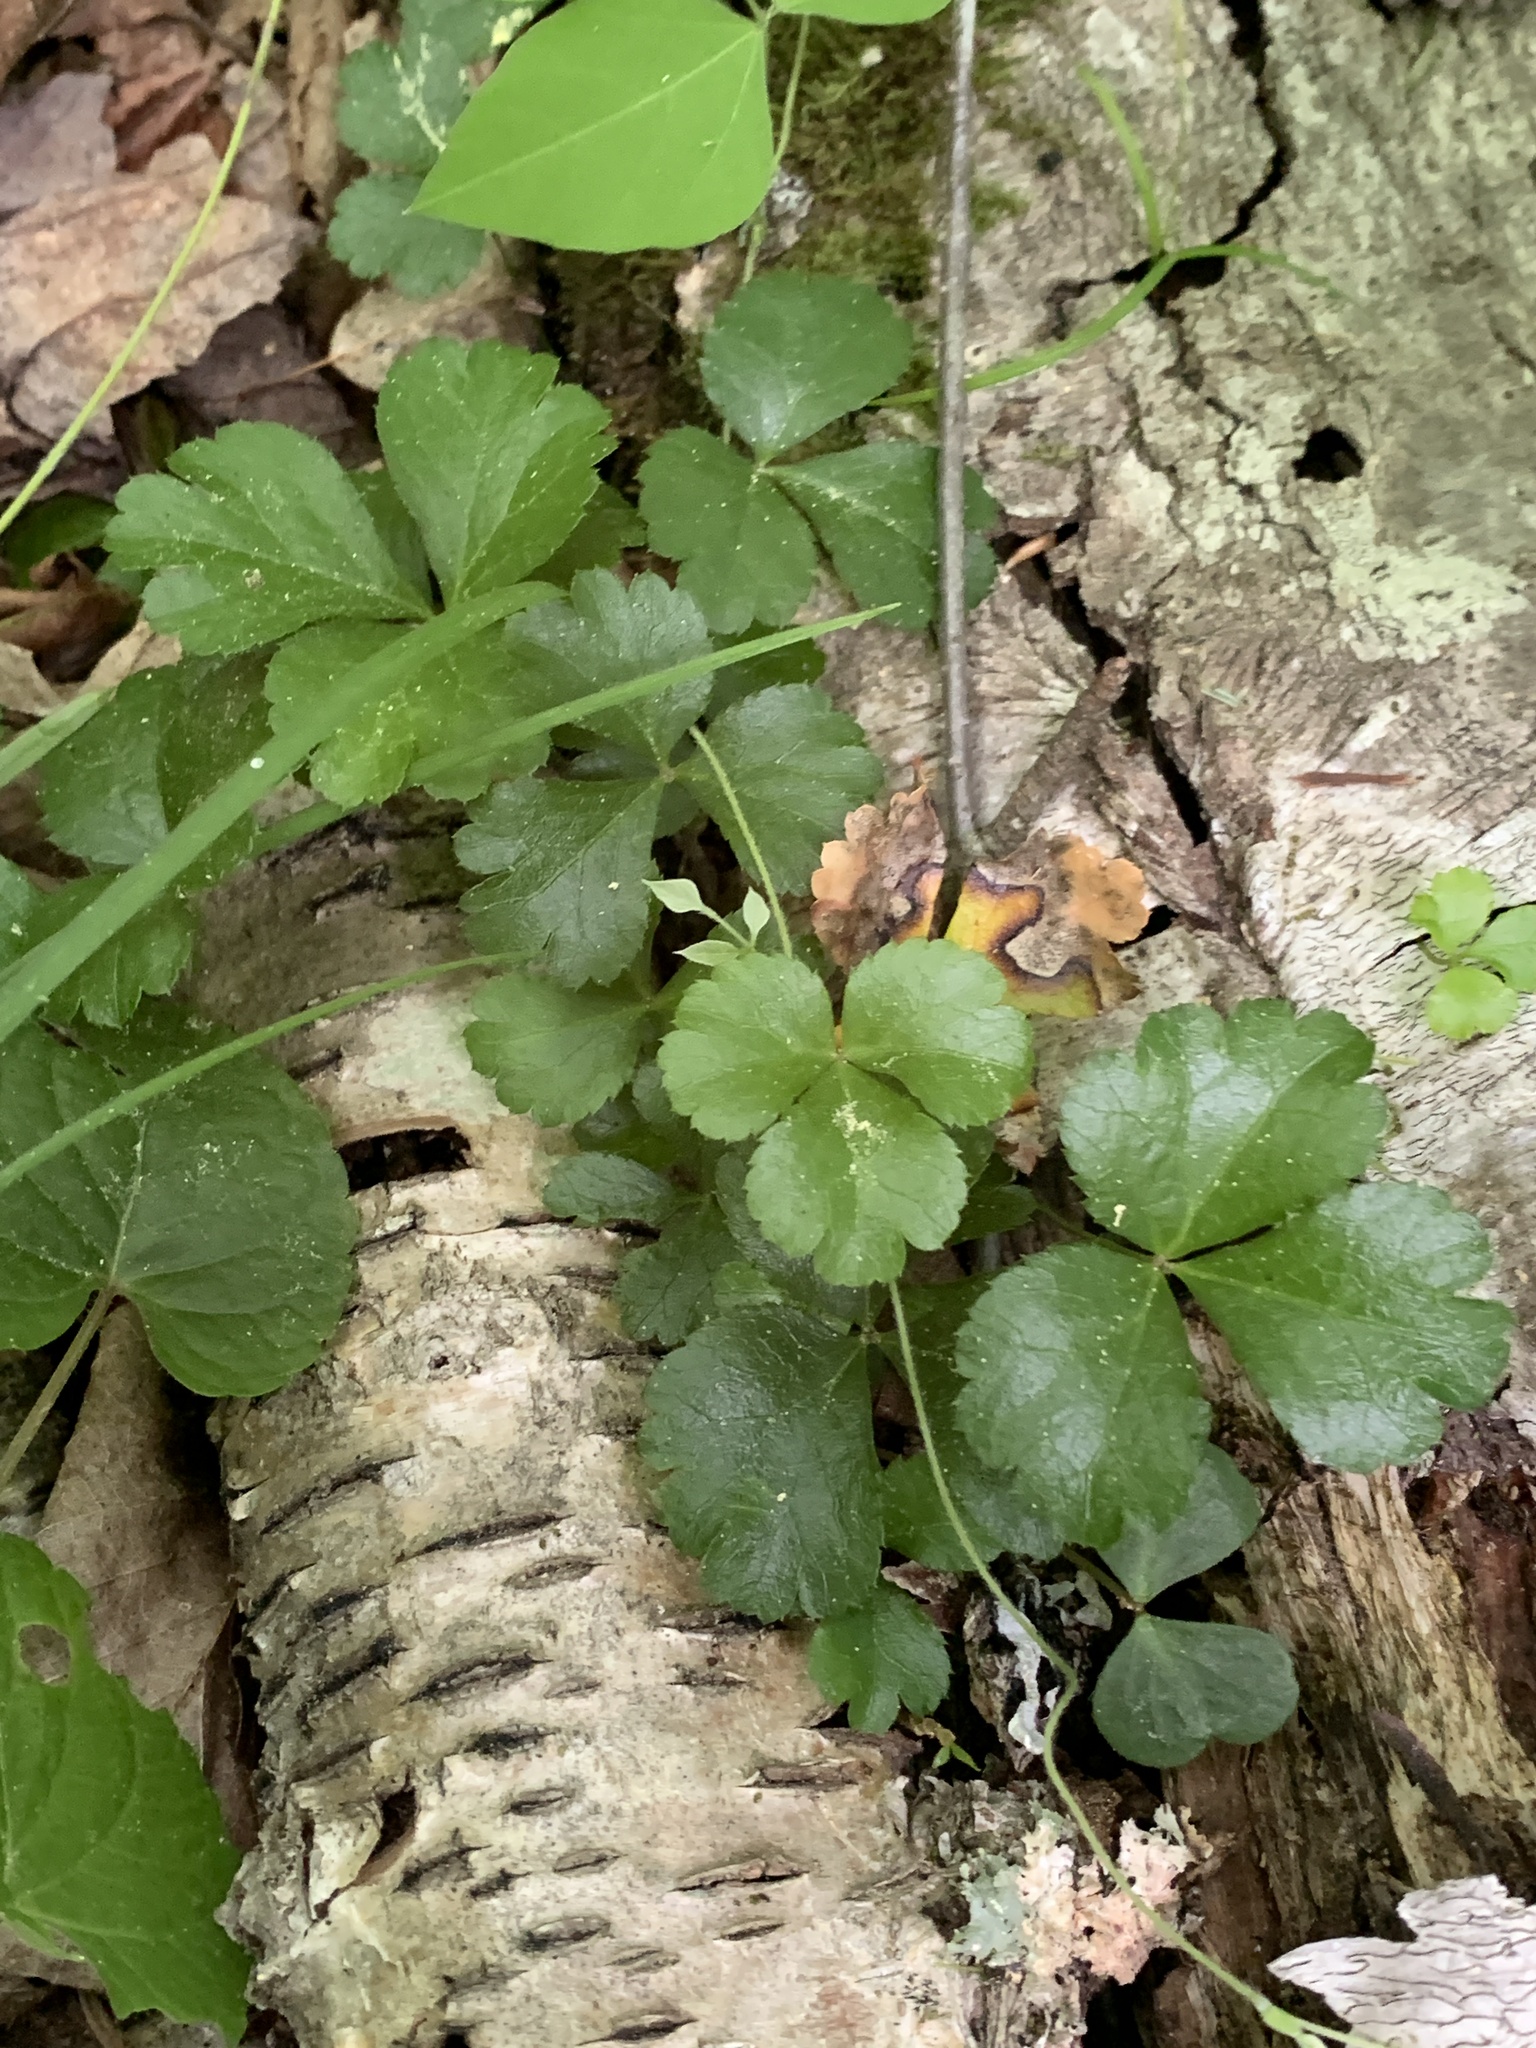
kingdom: Plantae
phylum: Tracheophyta
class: Magnoliopsida
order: Ranunculales
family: Ranunculaceae
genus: Coptis
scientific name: Coptis trifolia
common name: Canker-root
